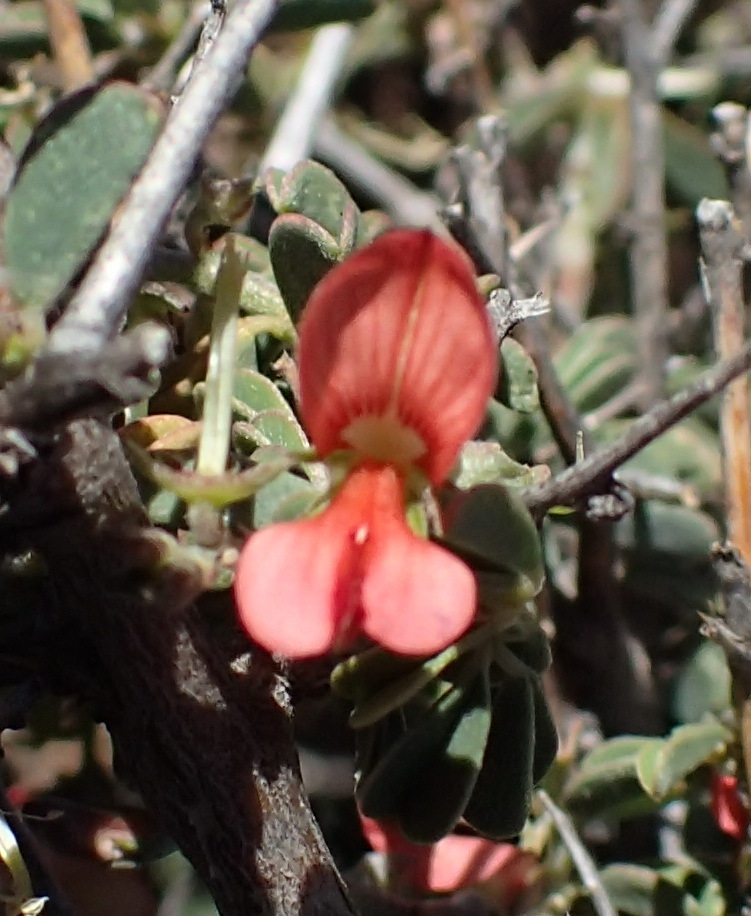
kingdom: Plantae
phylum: Tracheophyta
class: Magnoliopsida
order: Fabales
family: Fabaceae
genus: Indigofera
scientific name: Indigofera sessilifolia
